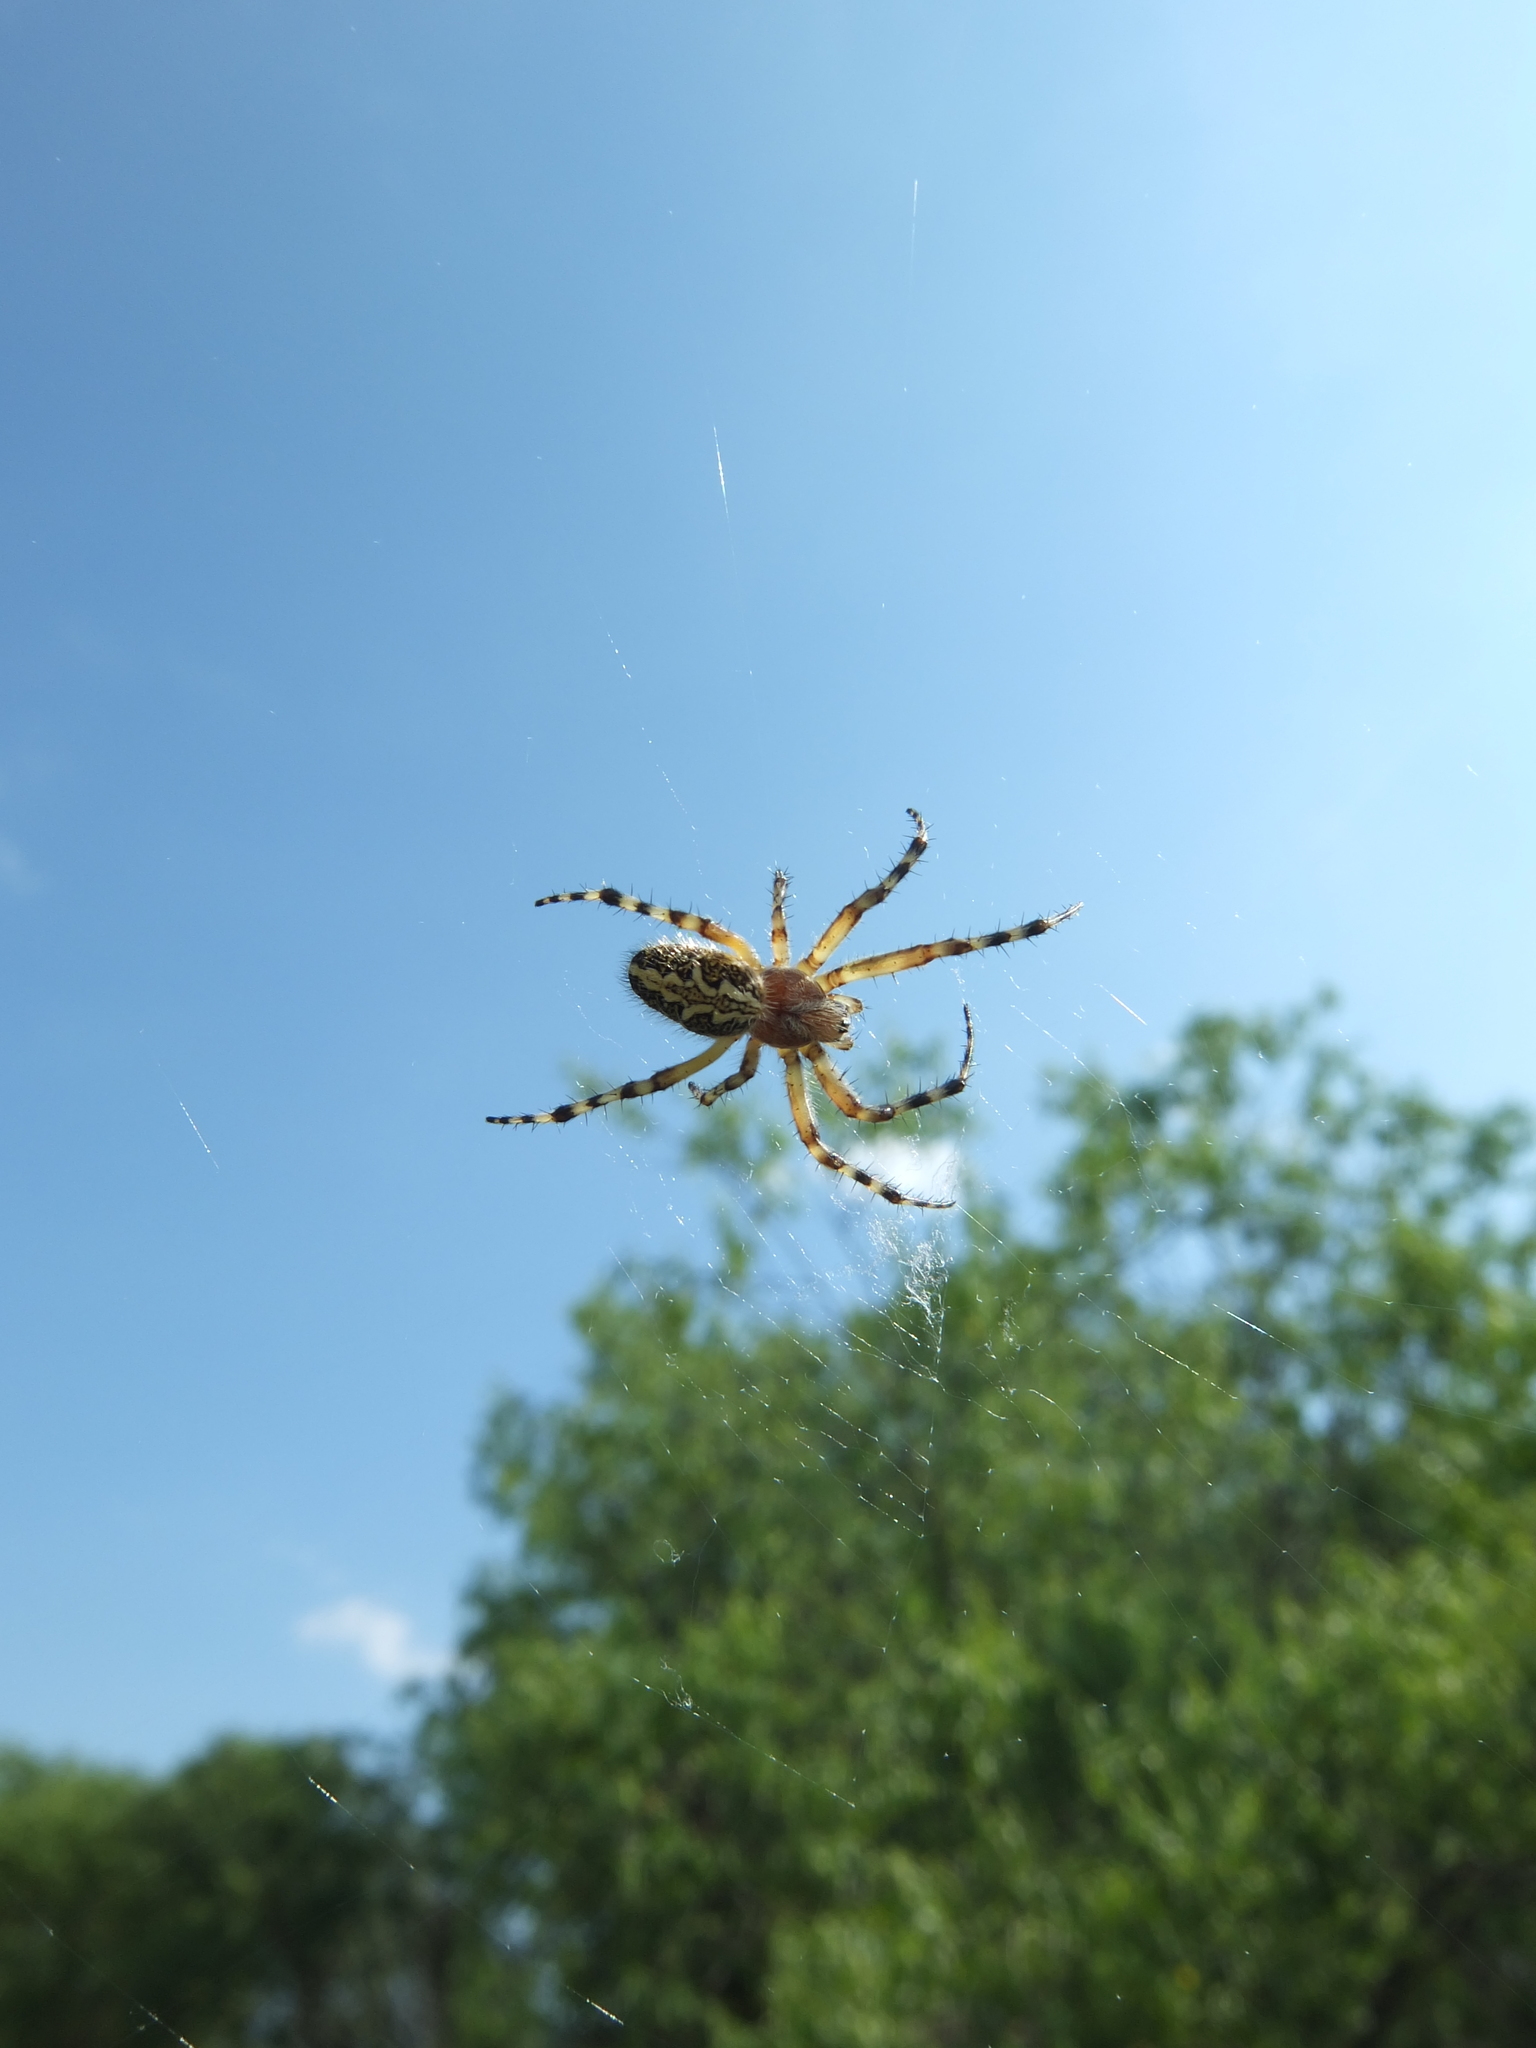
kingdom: Animalia
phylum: Arthropoda
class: Arachnida
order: Araneae
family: Araneidae
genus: Aculepeira
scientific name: Aculepeira ceropegia
